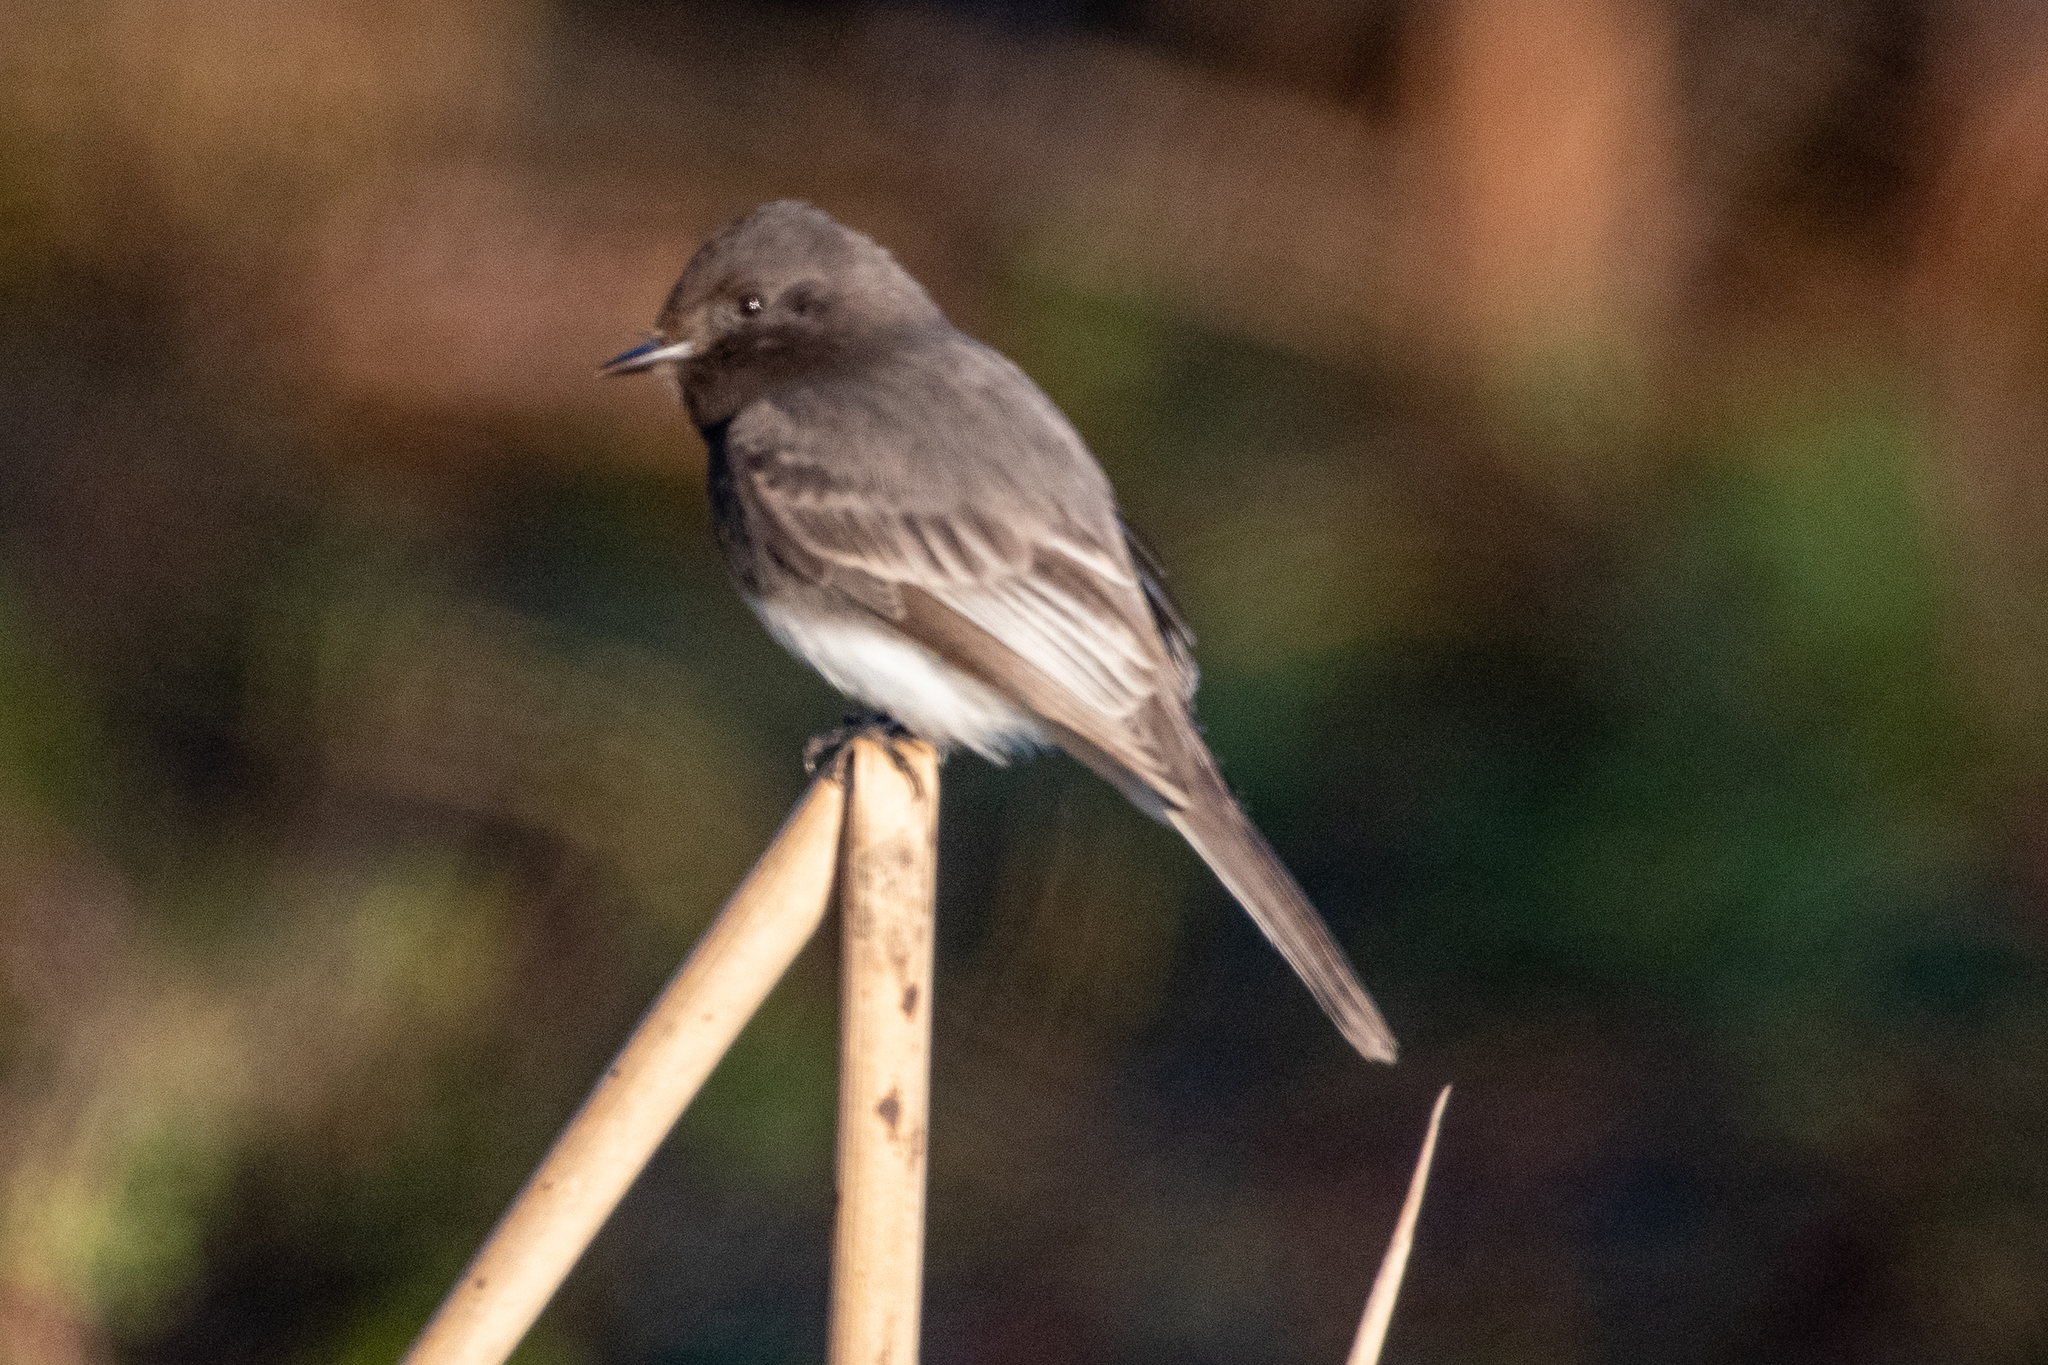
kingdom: Animalia
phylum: Chordata
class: Aves
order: Passeriformes
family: Tyrannidae
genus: Sayornis
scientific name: Sayornis nigricans
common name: Black phoebe
